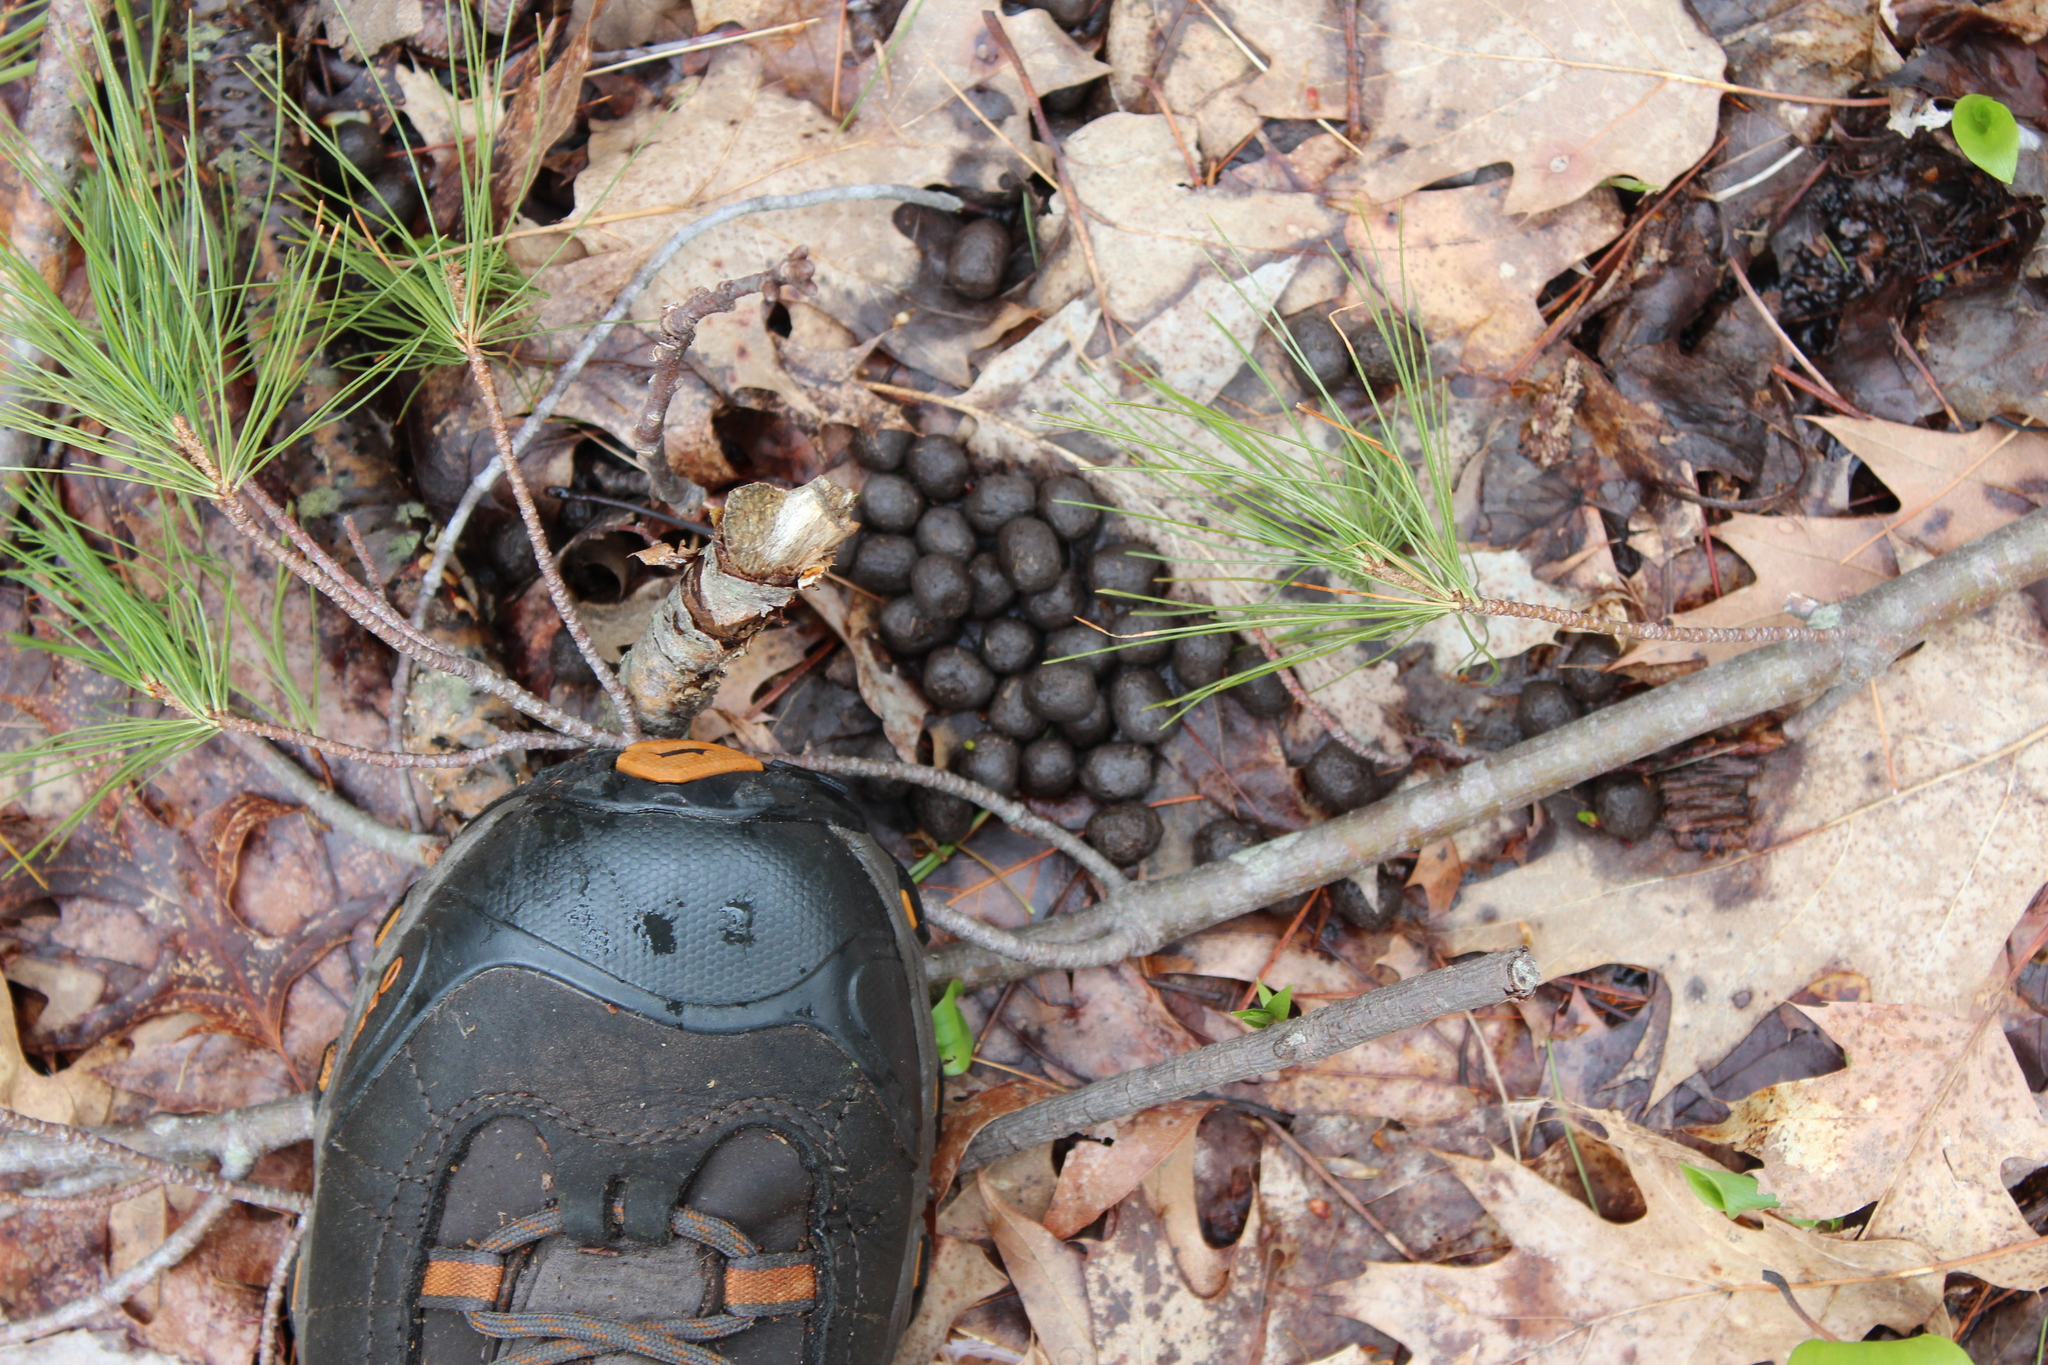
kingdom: Animalia
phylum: Chordata
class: Mammalia
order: Artiodactyla
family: Cervidae
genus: Odocoileus
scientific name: Odocoileus virginianus
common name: White-tailed deer
